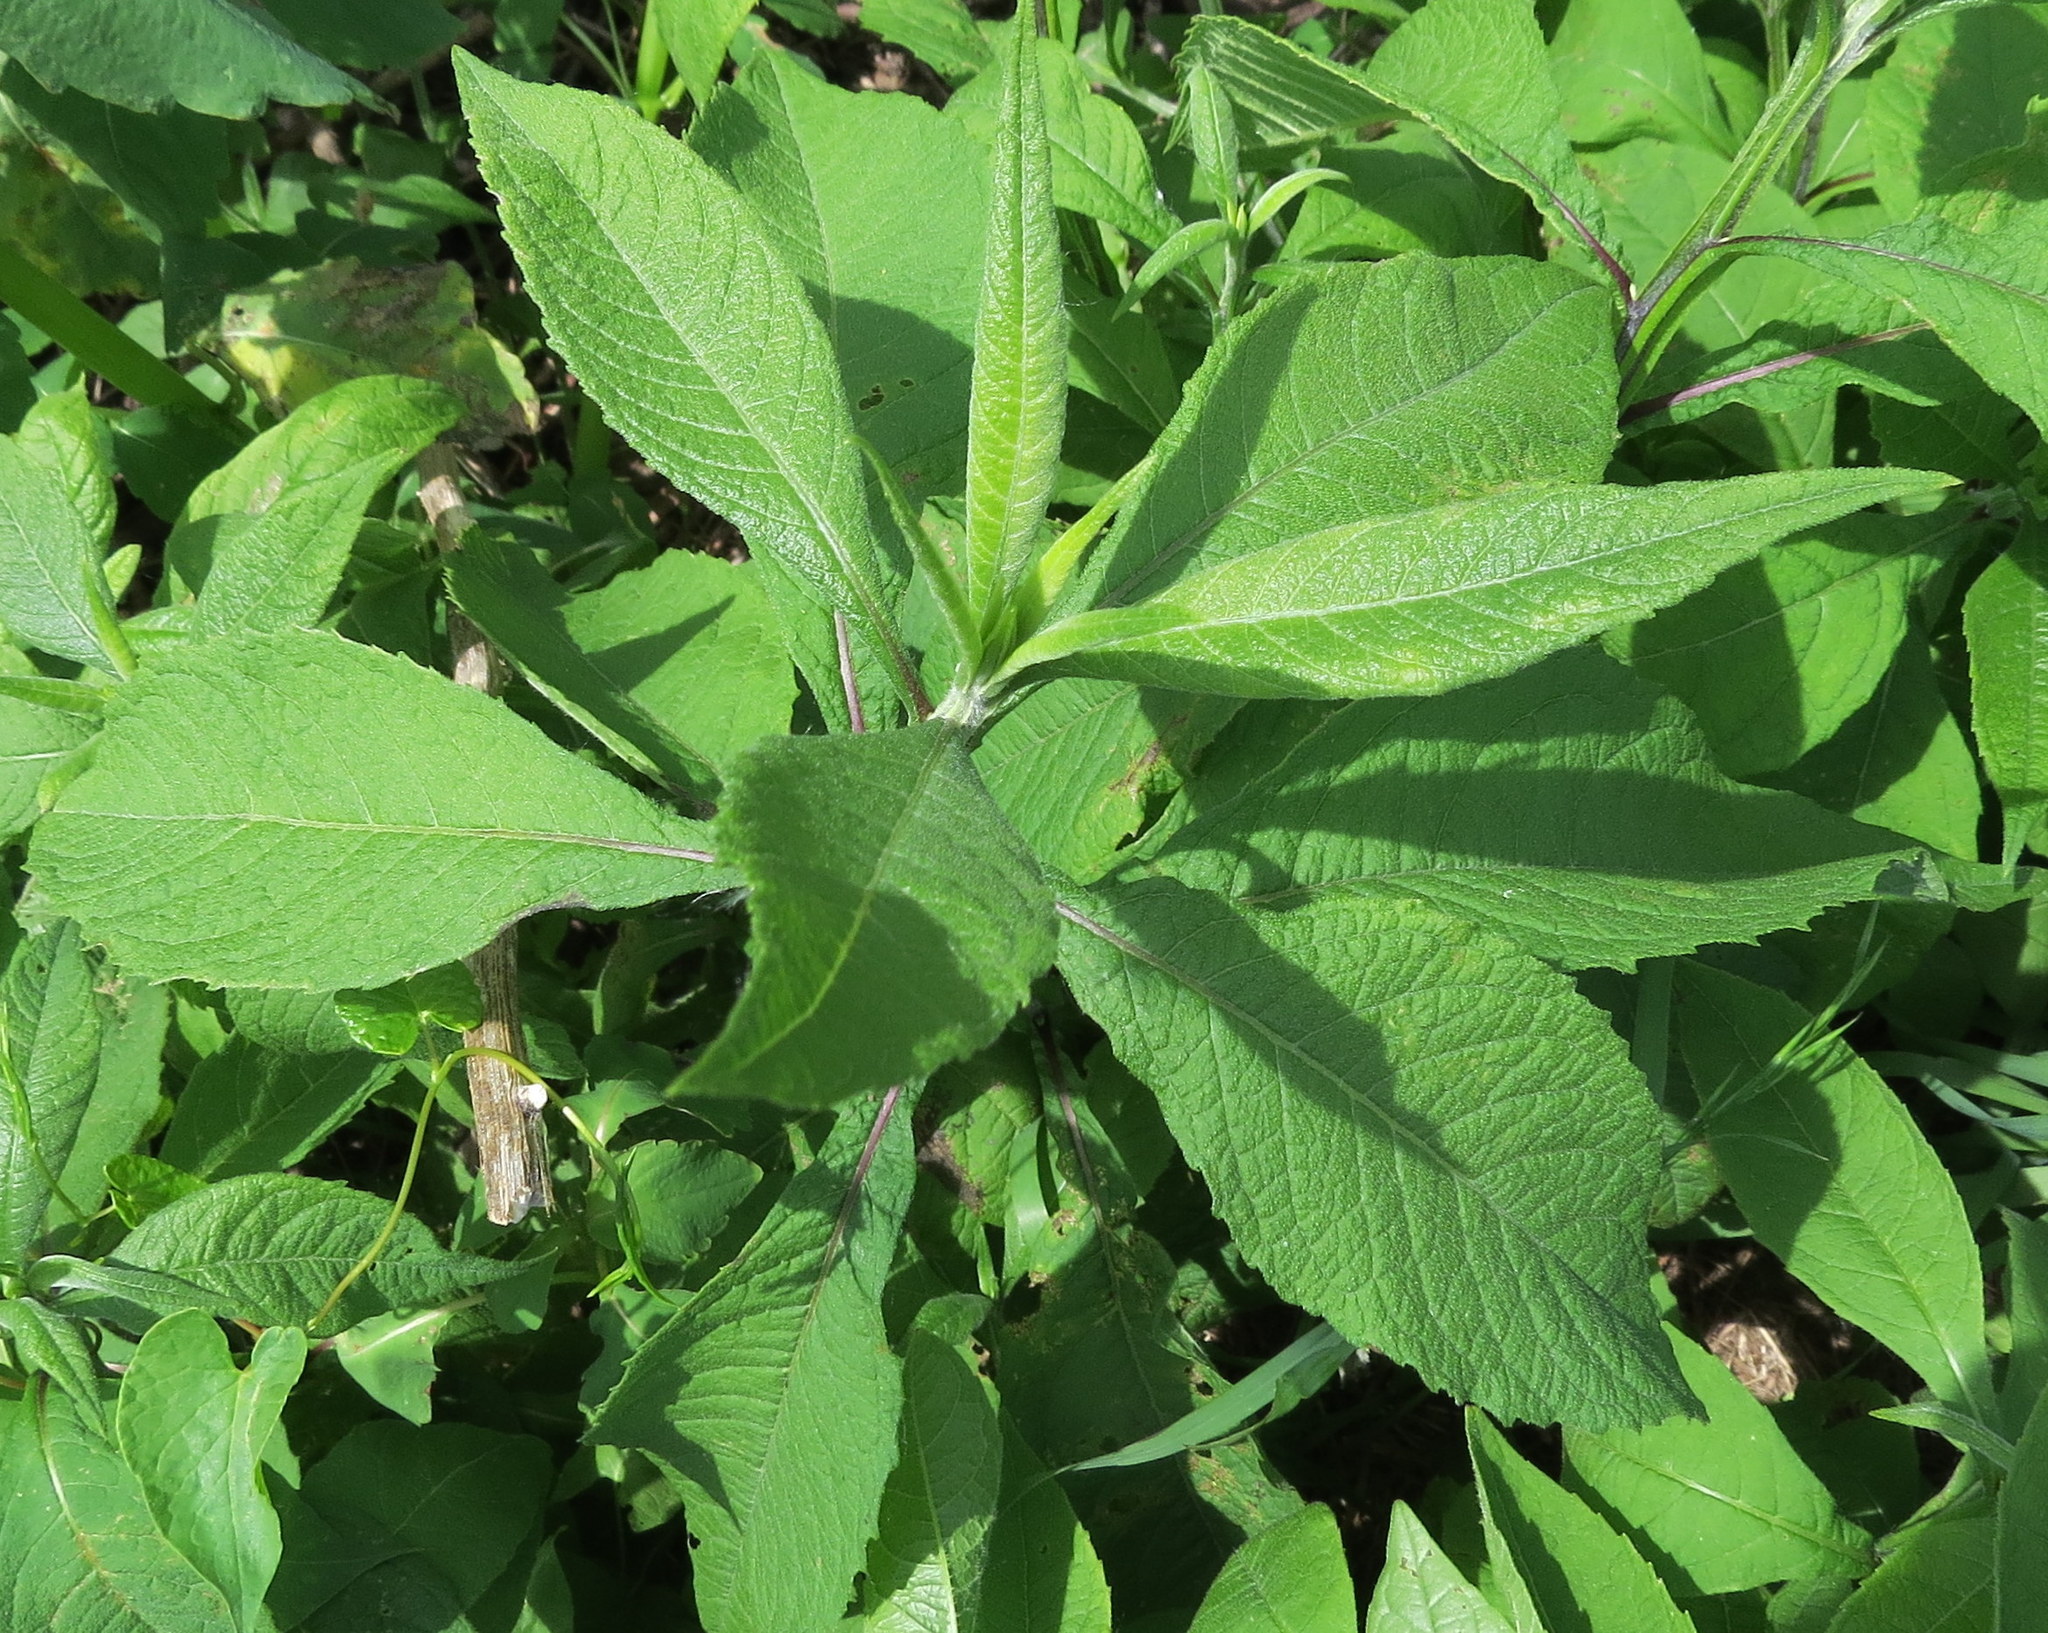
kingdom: Plantae
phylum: Tracheophyta
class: Magnoliopsida
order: Asterales
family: Asteraceae
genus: Verbesina
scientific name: Verbesina alternifolia
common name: Wingstem
